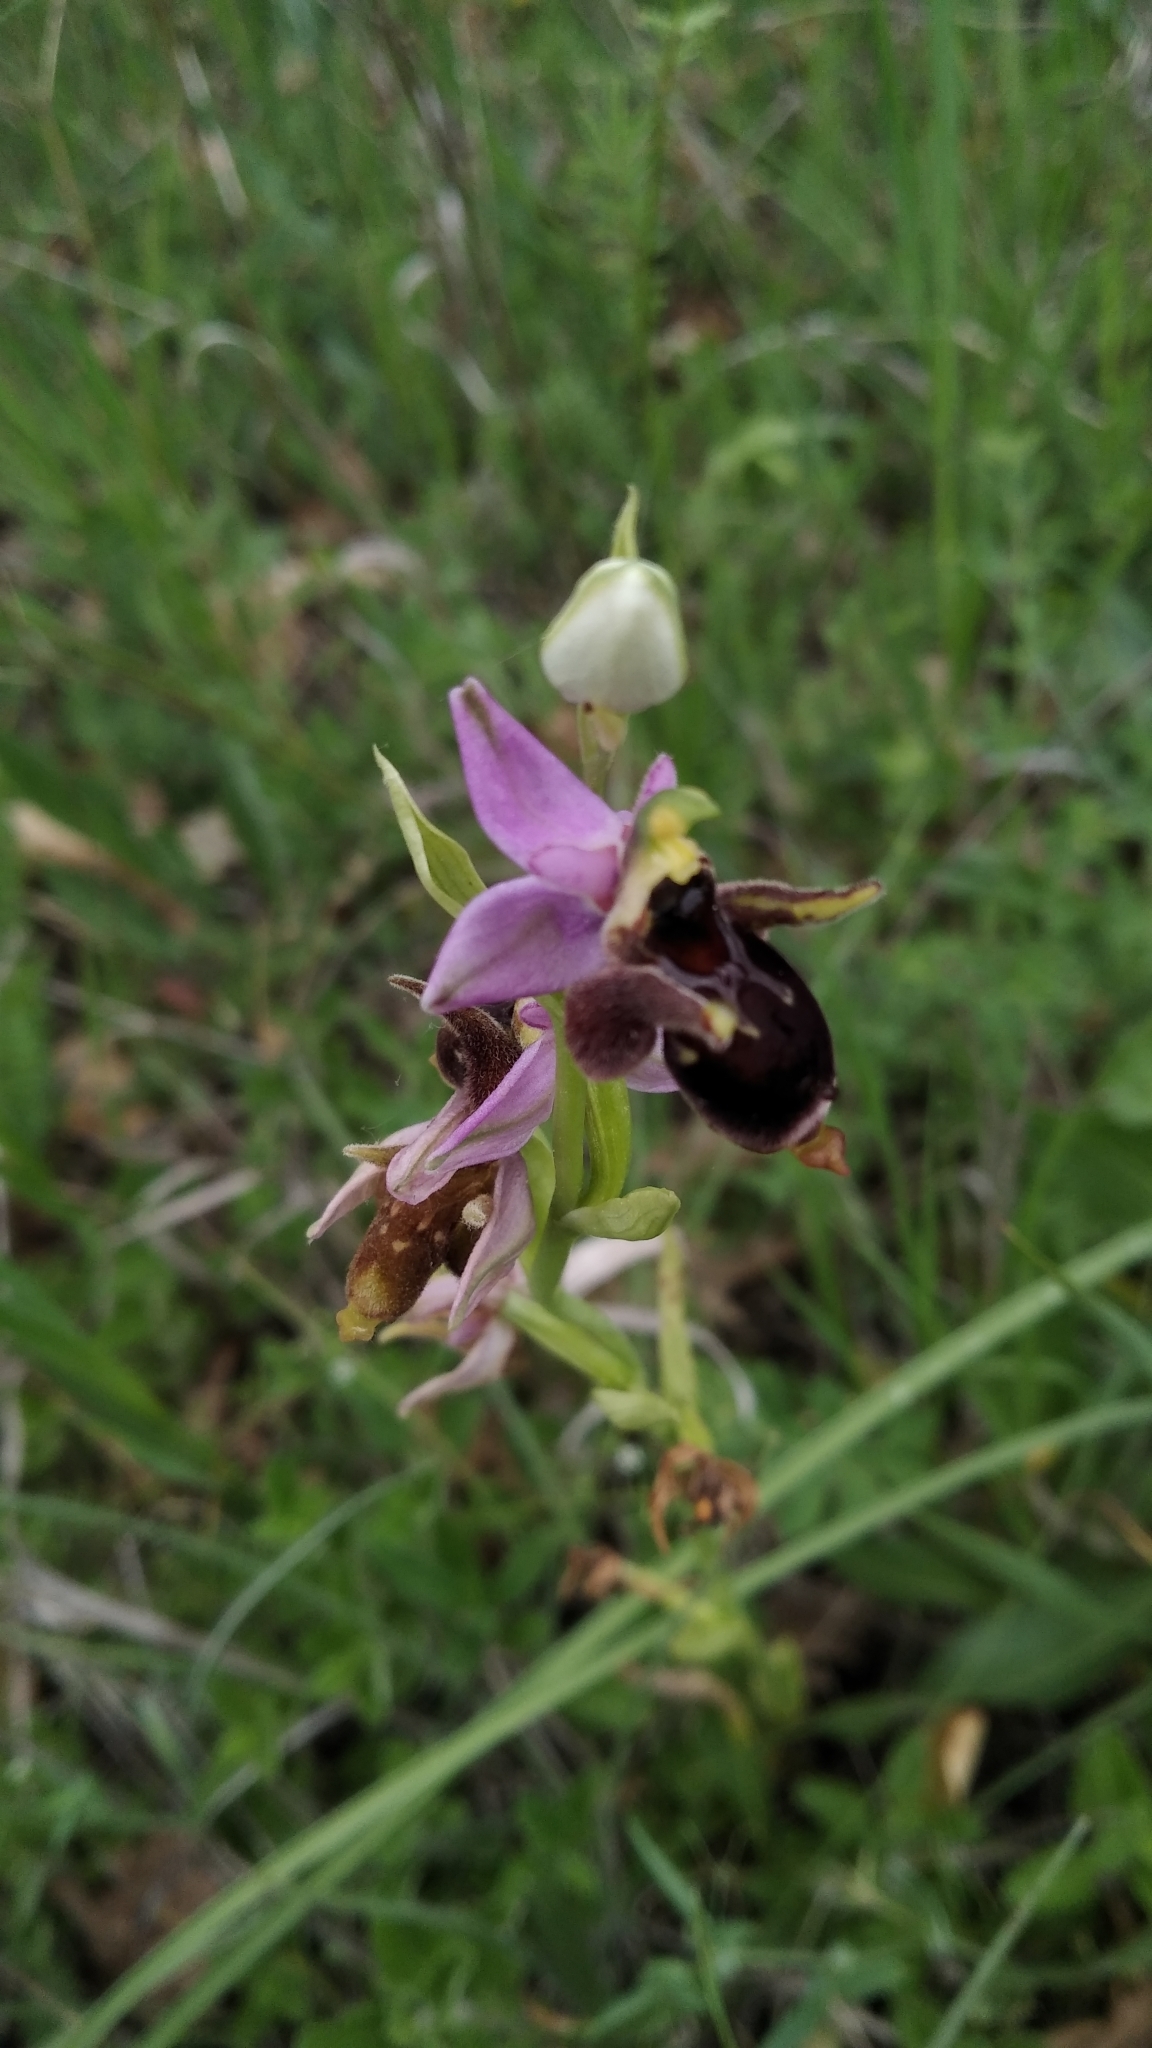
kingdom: Plantae
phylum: Tracheophyta
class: Liliopsida
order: Asparagales
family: Orchidaceae
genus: Ophrys
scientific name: Ophrys
